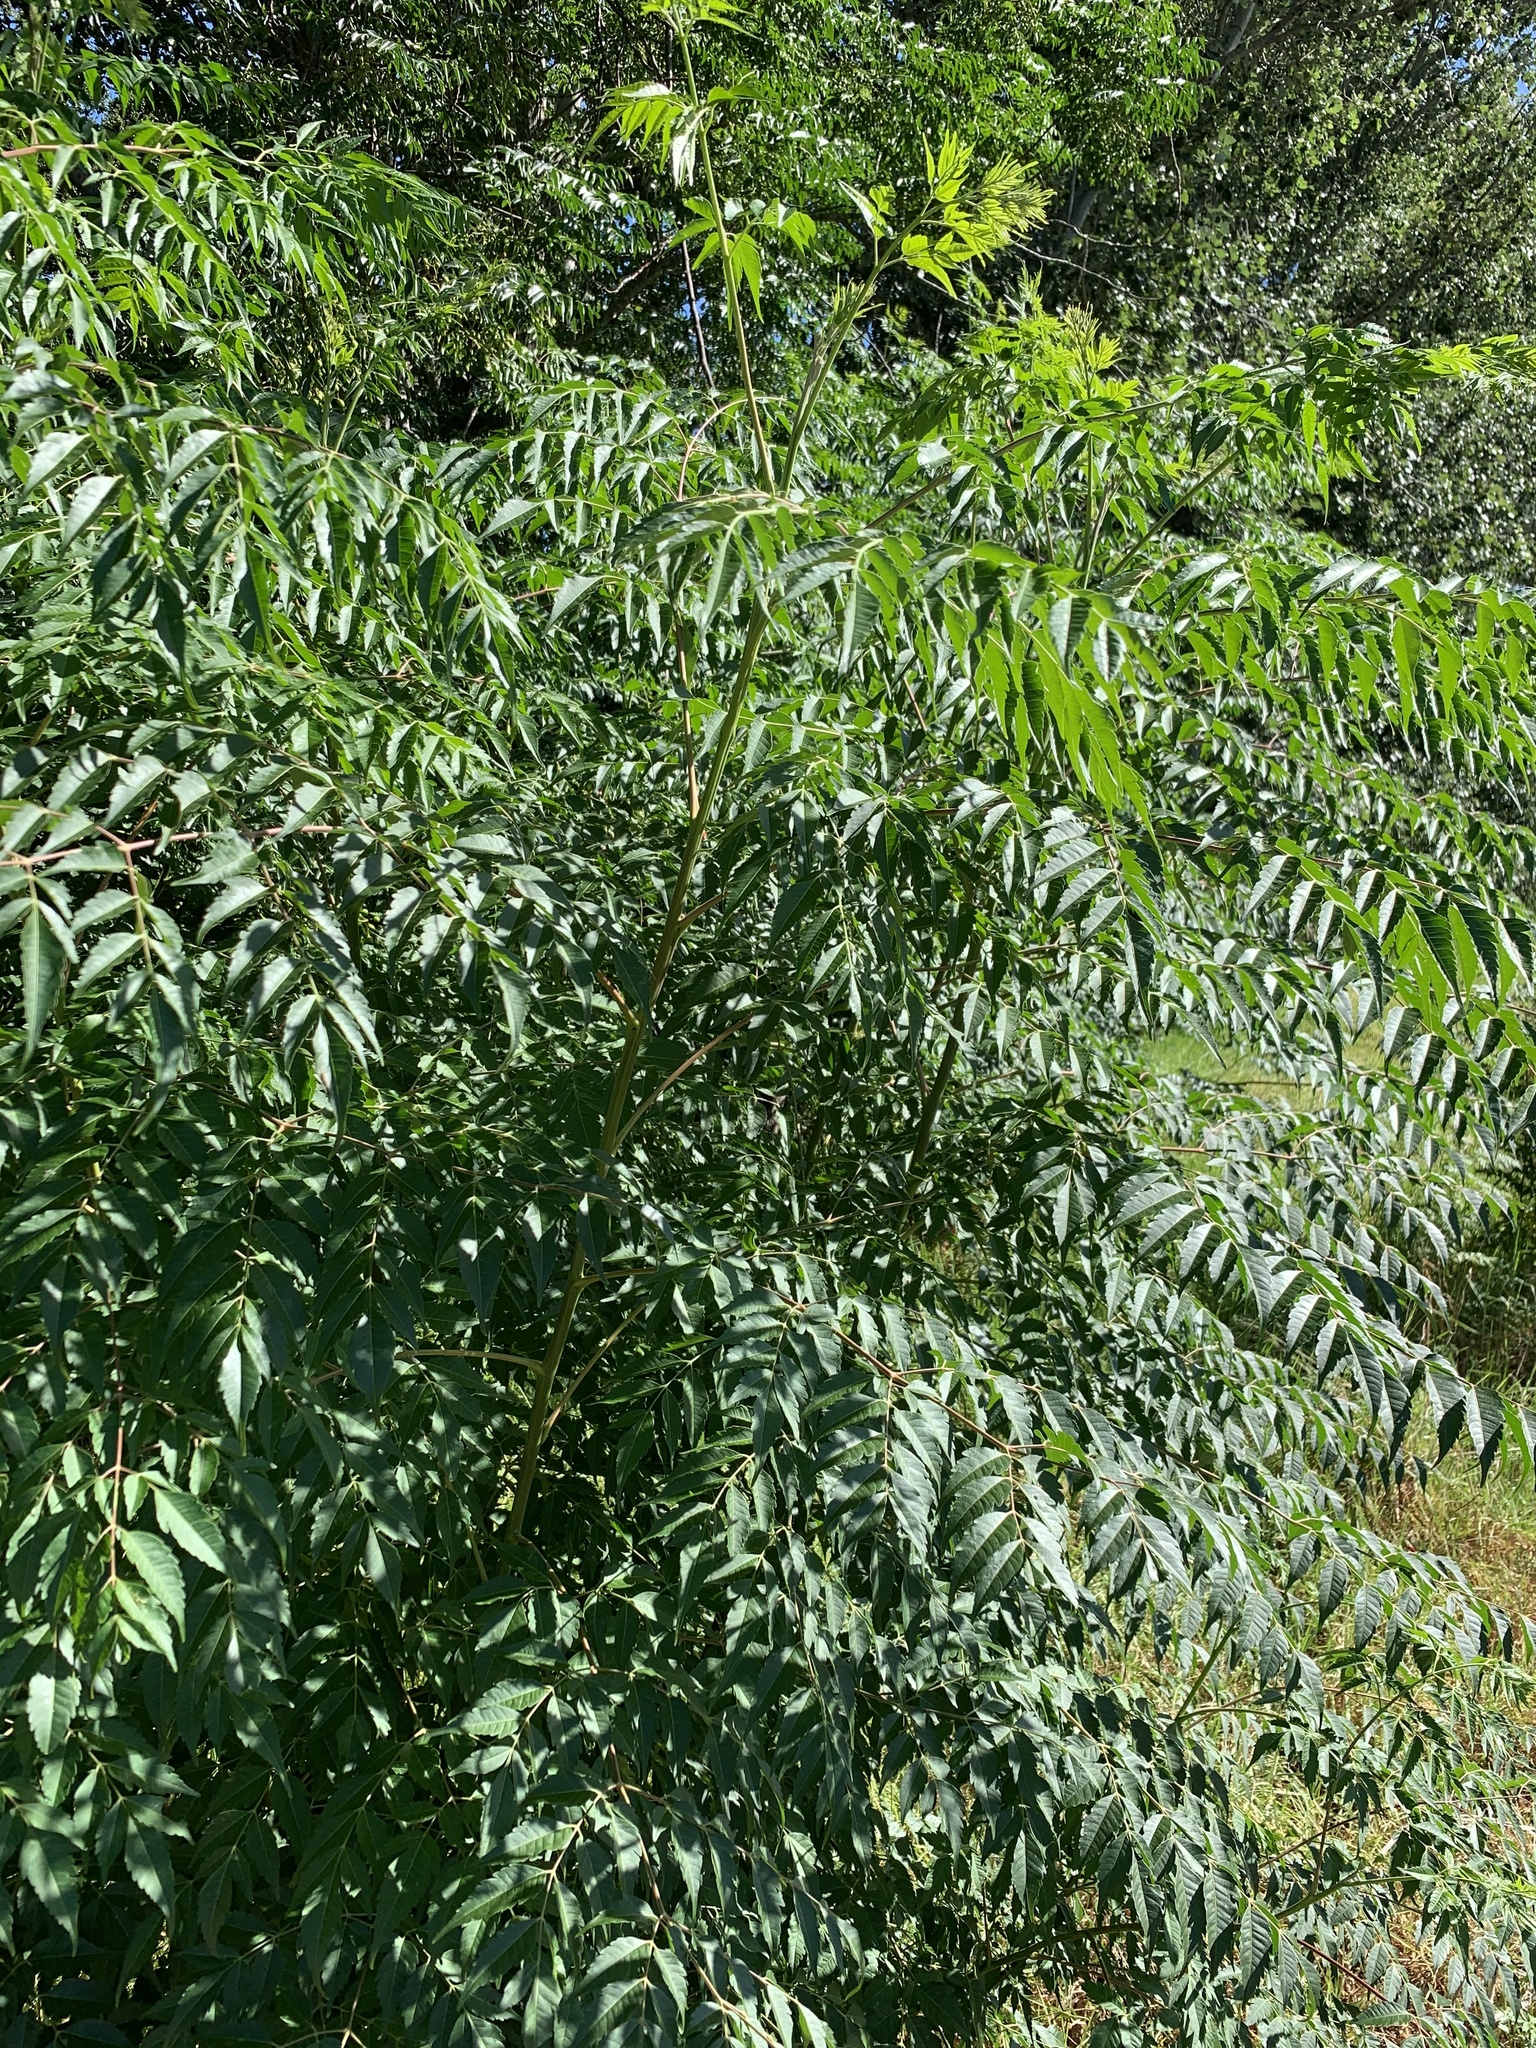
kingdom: Plantae
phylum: Tracheophyta
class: Magnoliopsida
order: Sapindales
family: Meliaceae
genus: Melia
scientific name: Melia azedarach
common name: Chinaberrytree
